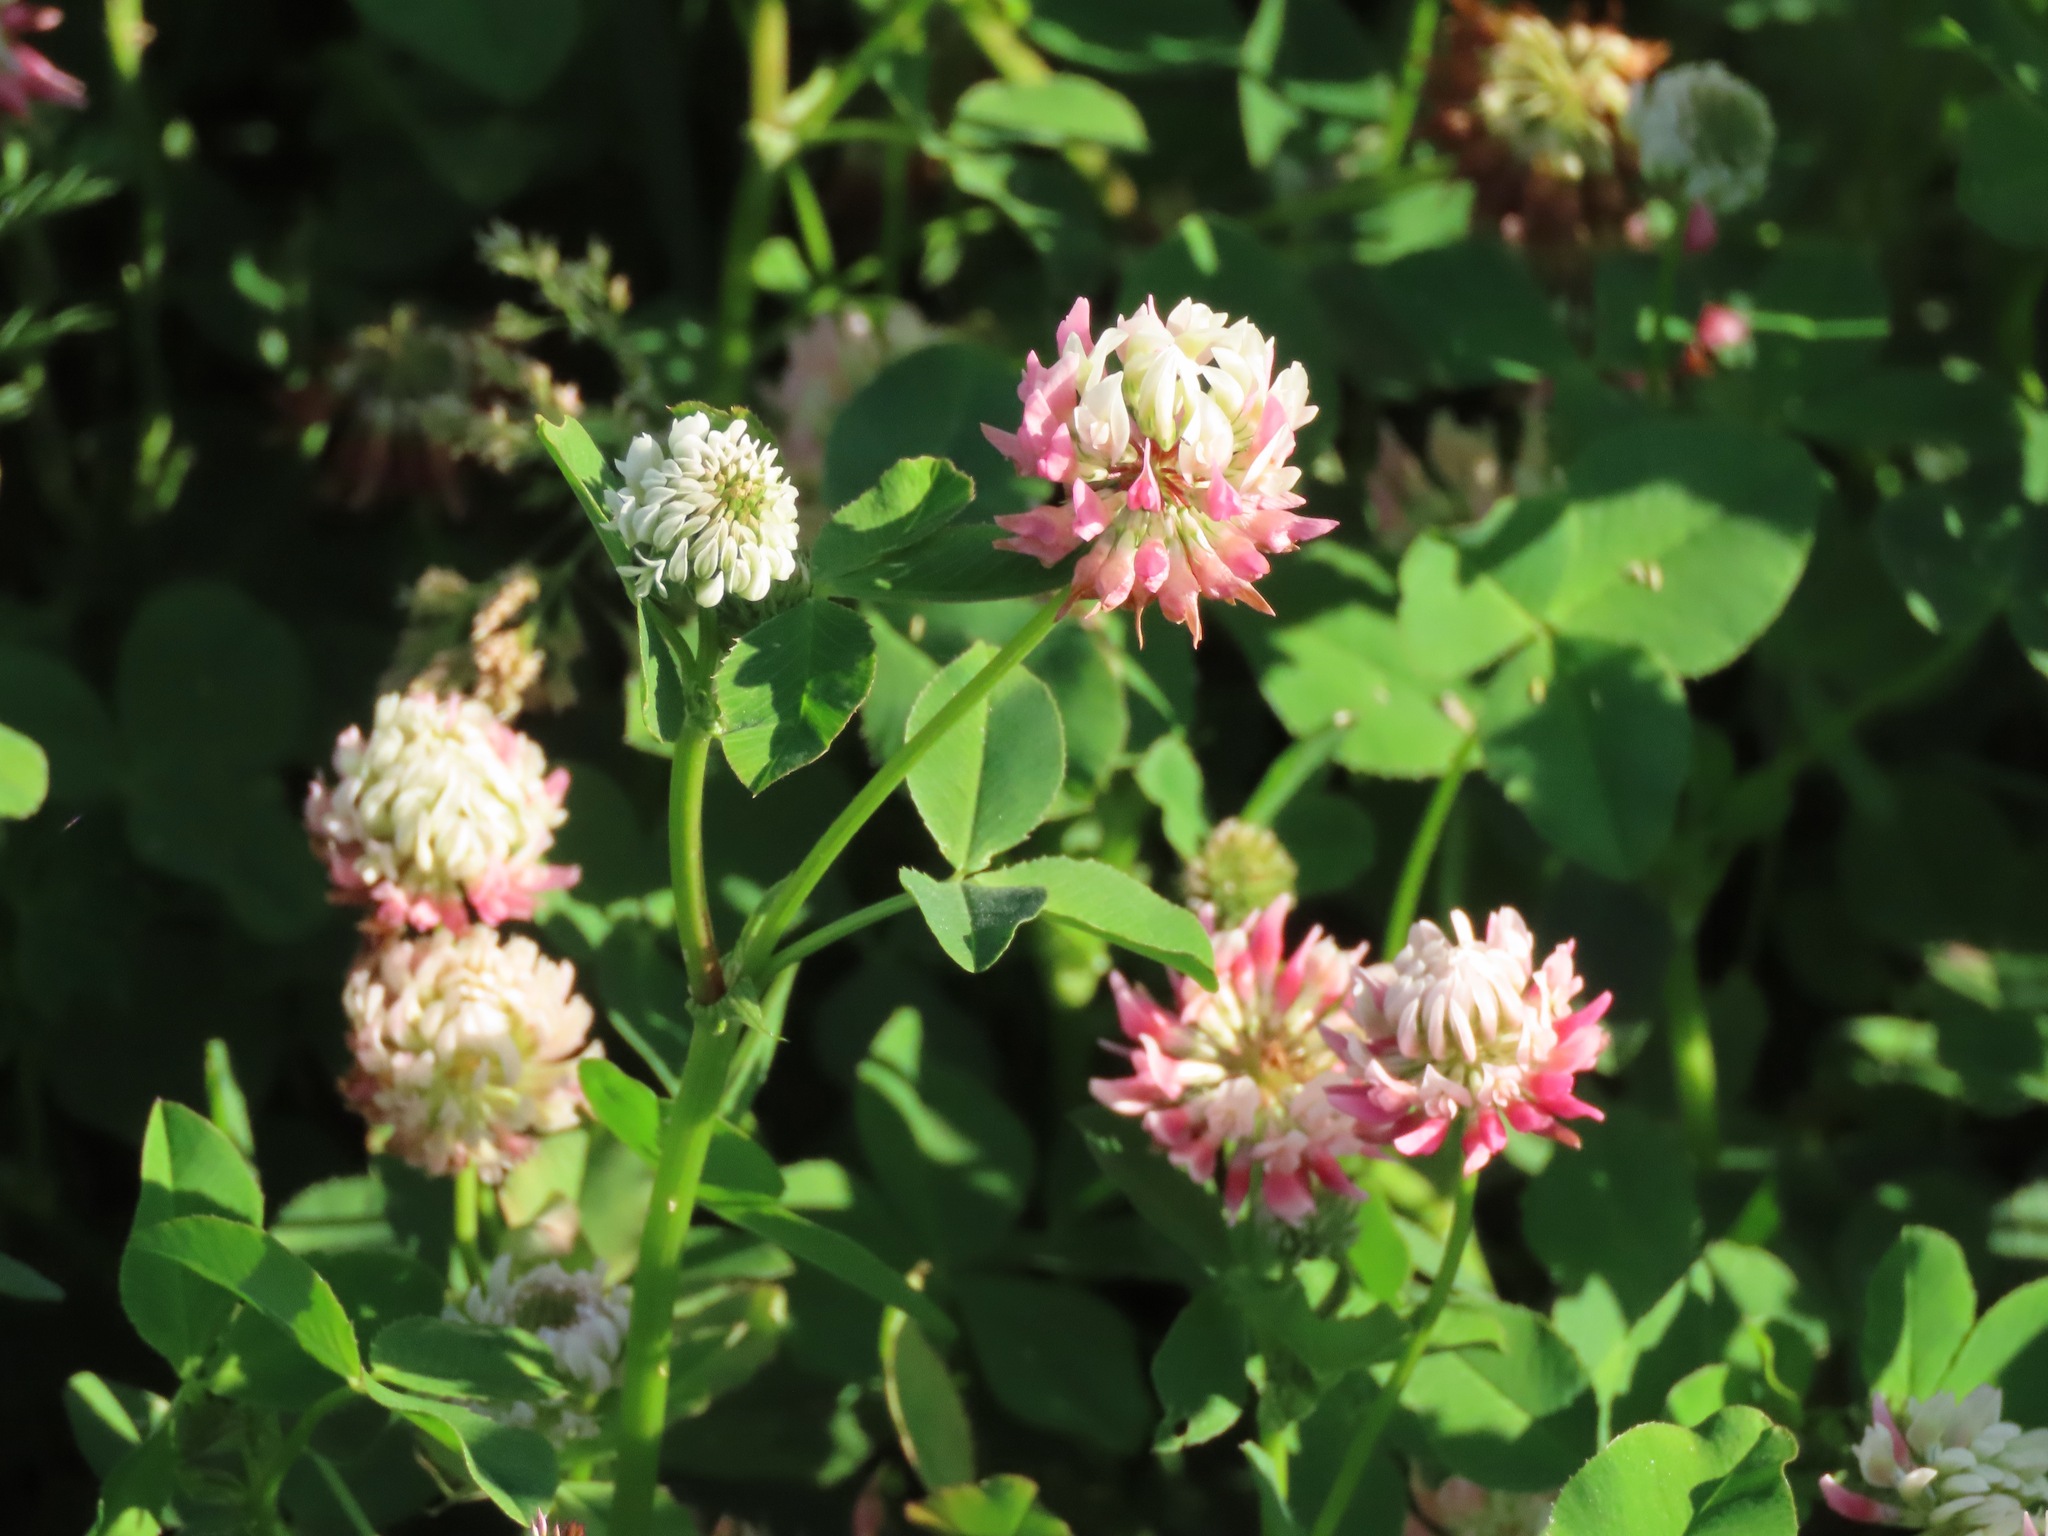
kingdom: Plantae
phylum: Tracheophyta
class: Magnoliopsida
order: Fabales
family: Fabaceae
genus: Trifolium
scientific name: Trifolium hybridum
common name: Alsike clover
